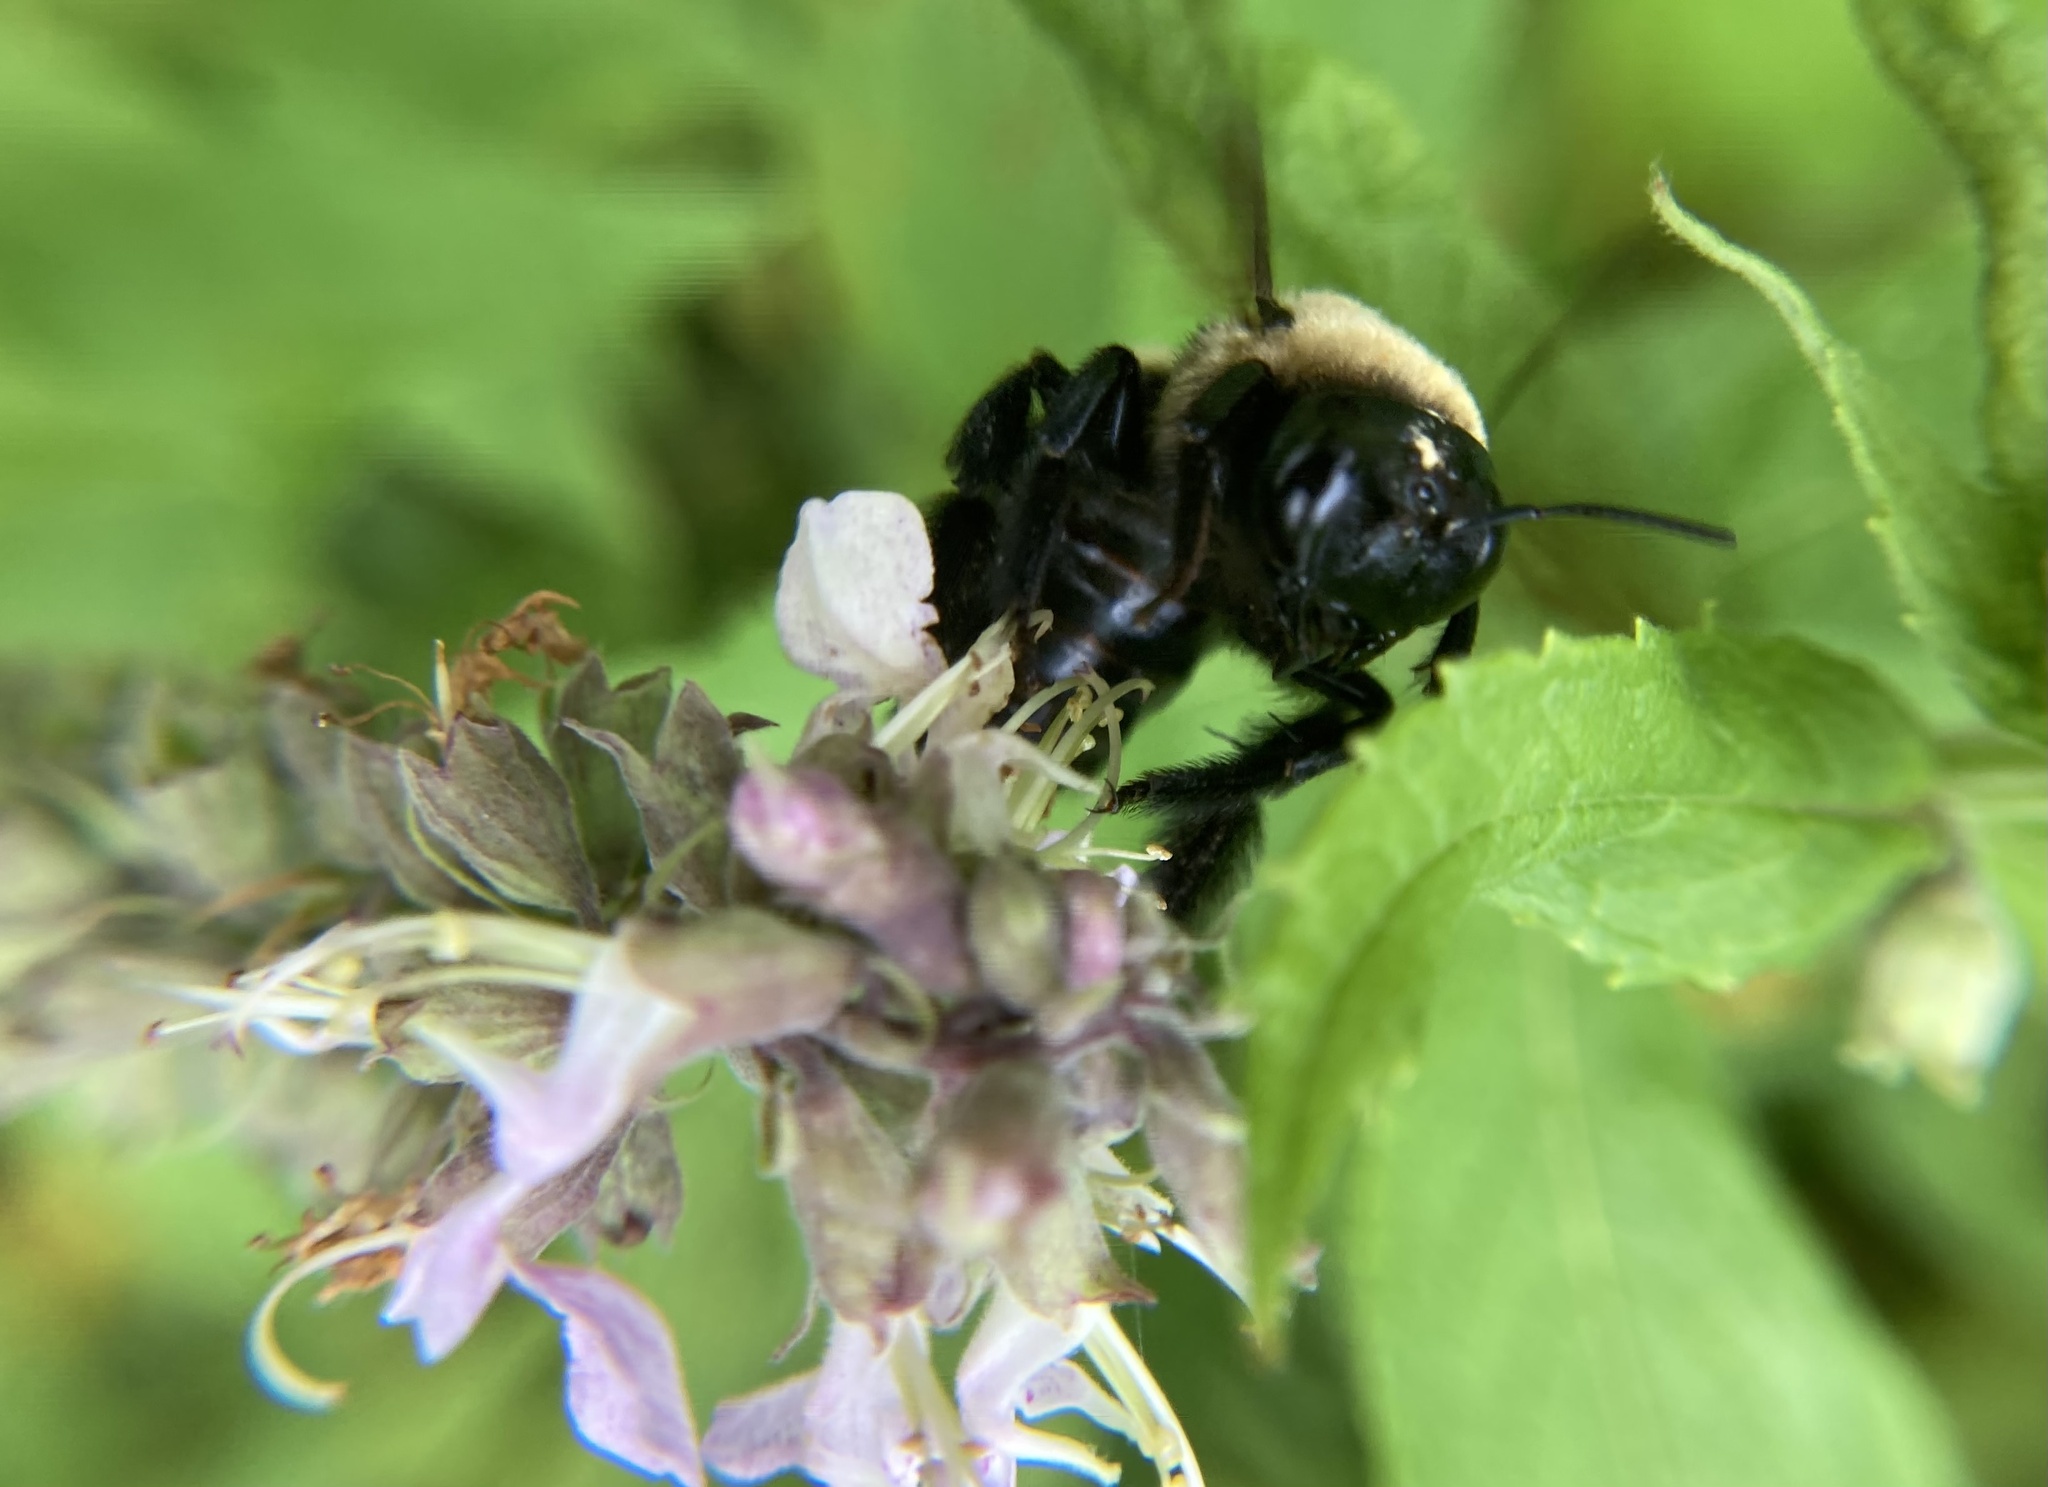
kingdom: Animalia
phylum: Arthropoda
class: Insecta
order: Hymenoptera
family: Apidae
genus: Xylocopa
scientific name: Xylocopa virginica
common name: Carpenter bee
